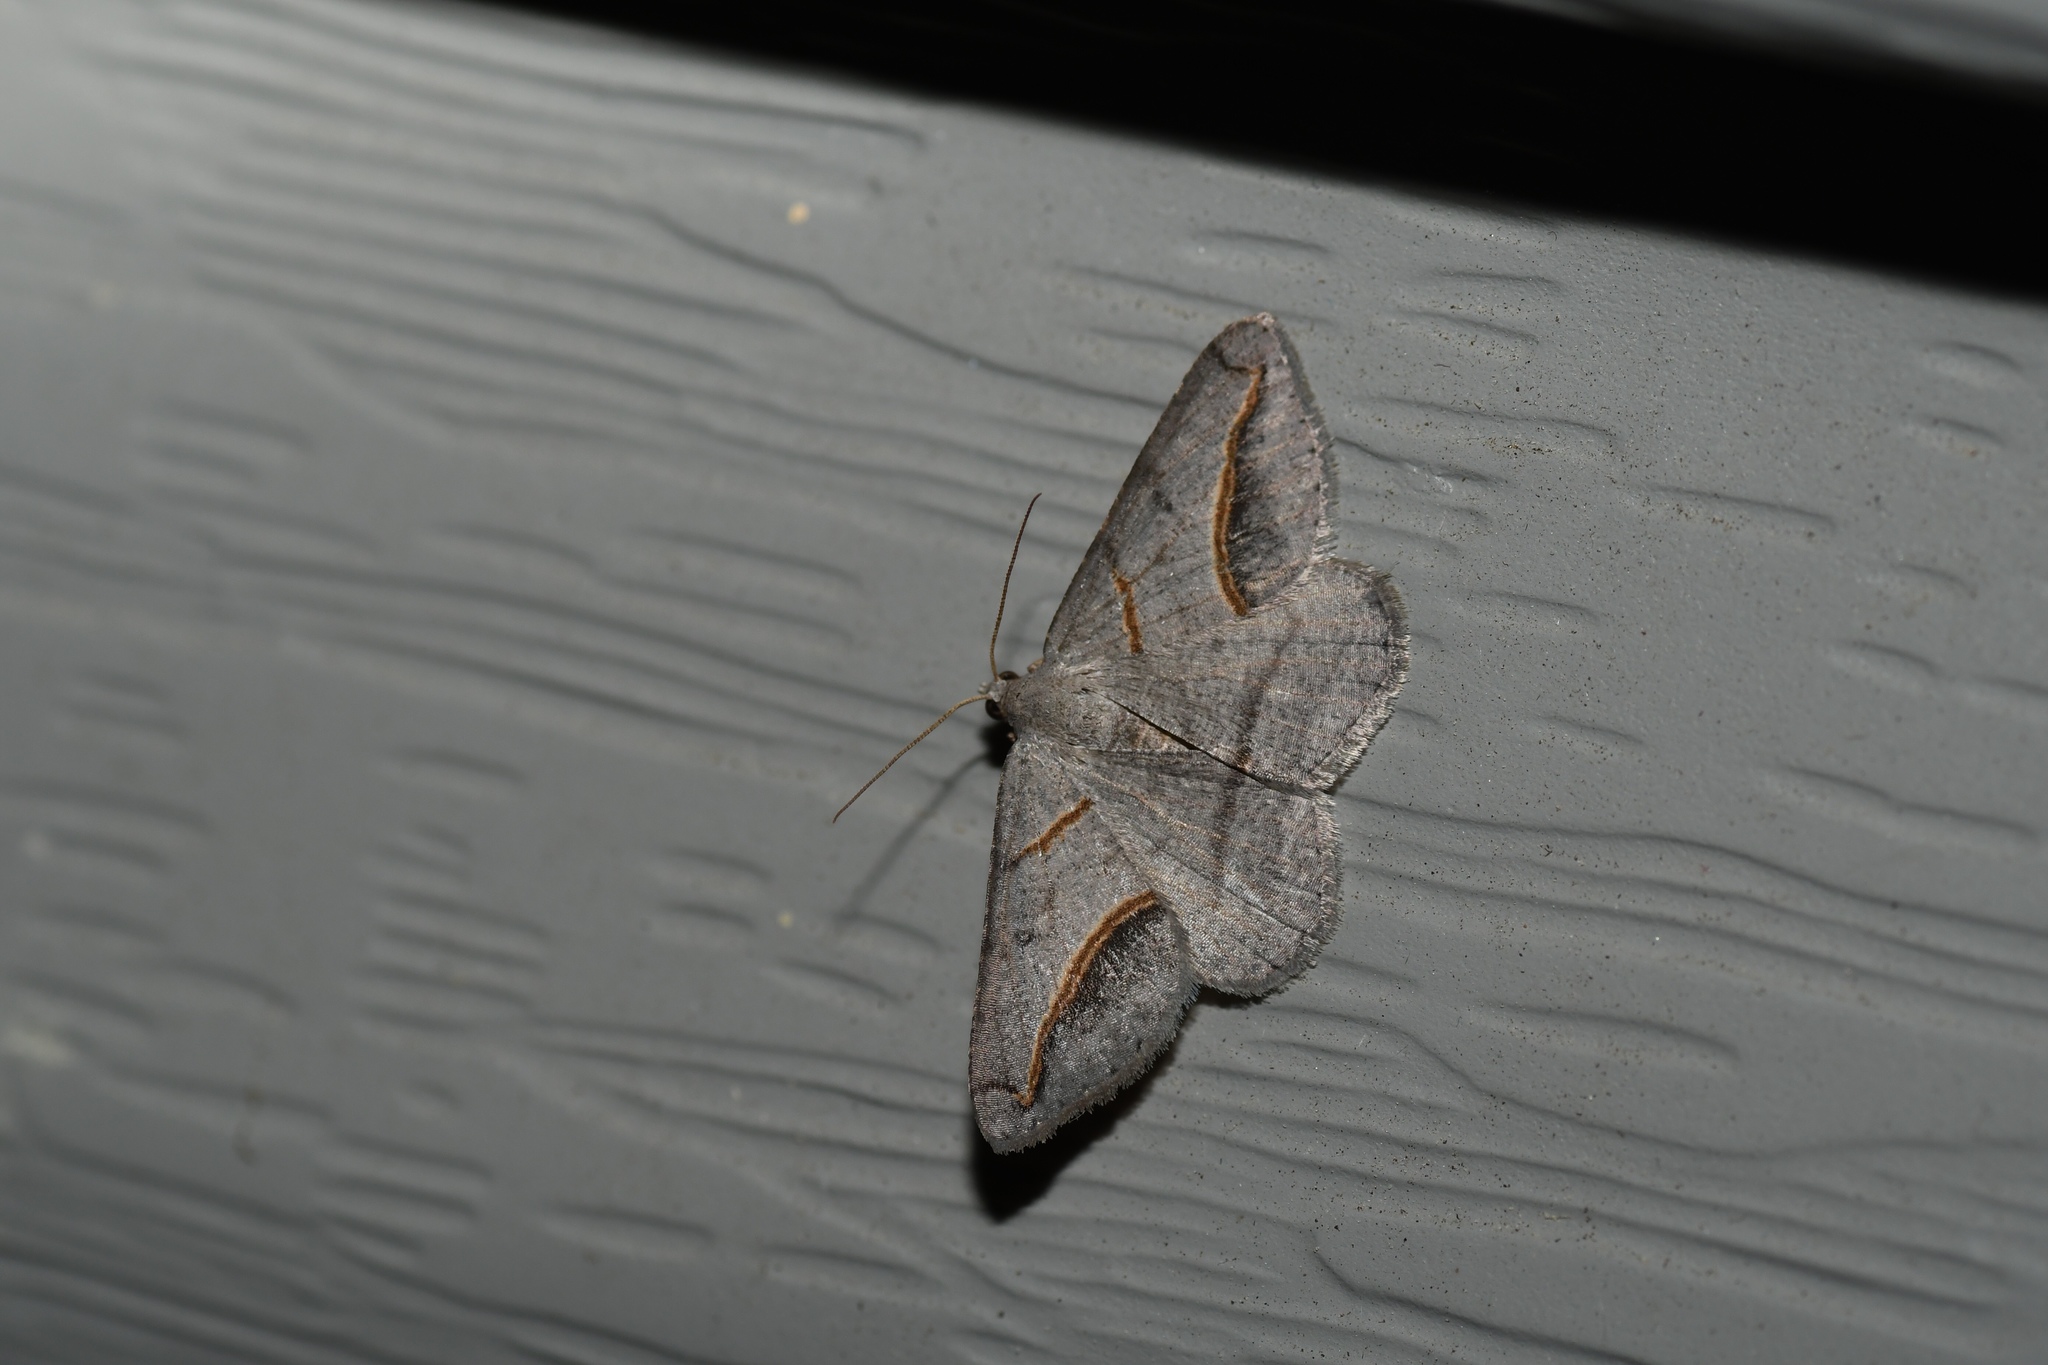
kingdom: Animalia
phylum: Arthropoda
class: Insecta
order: Lepidoptera
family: Geometridae
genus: Digrammia
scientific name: Digrammia mellistrigata
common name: Yellow-lined angle
